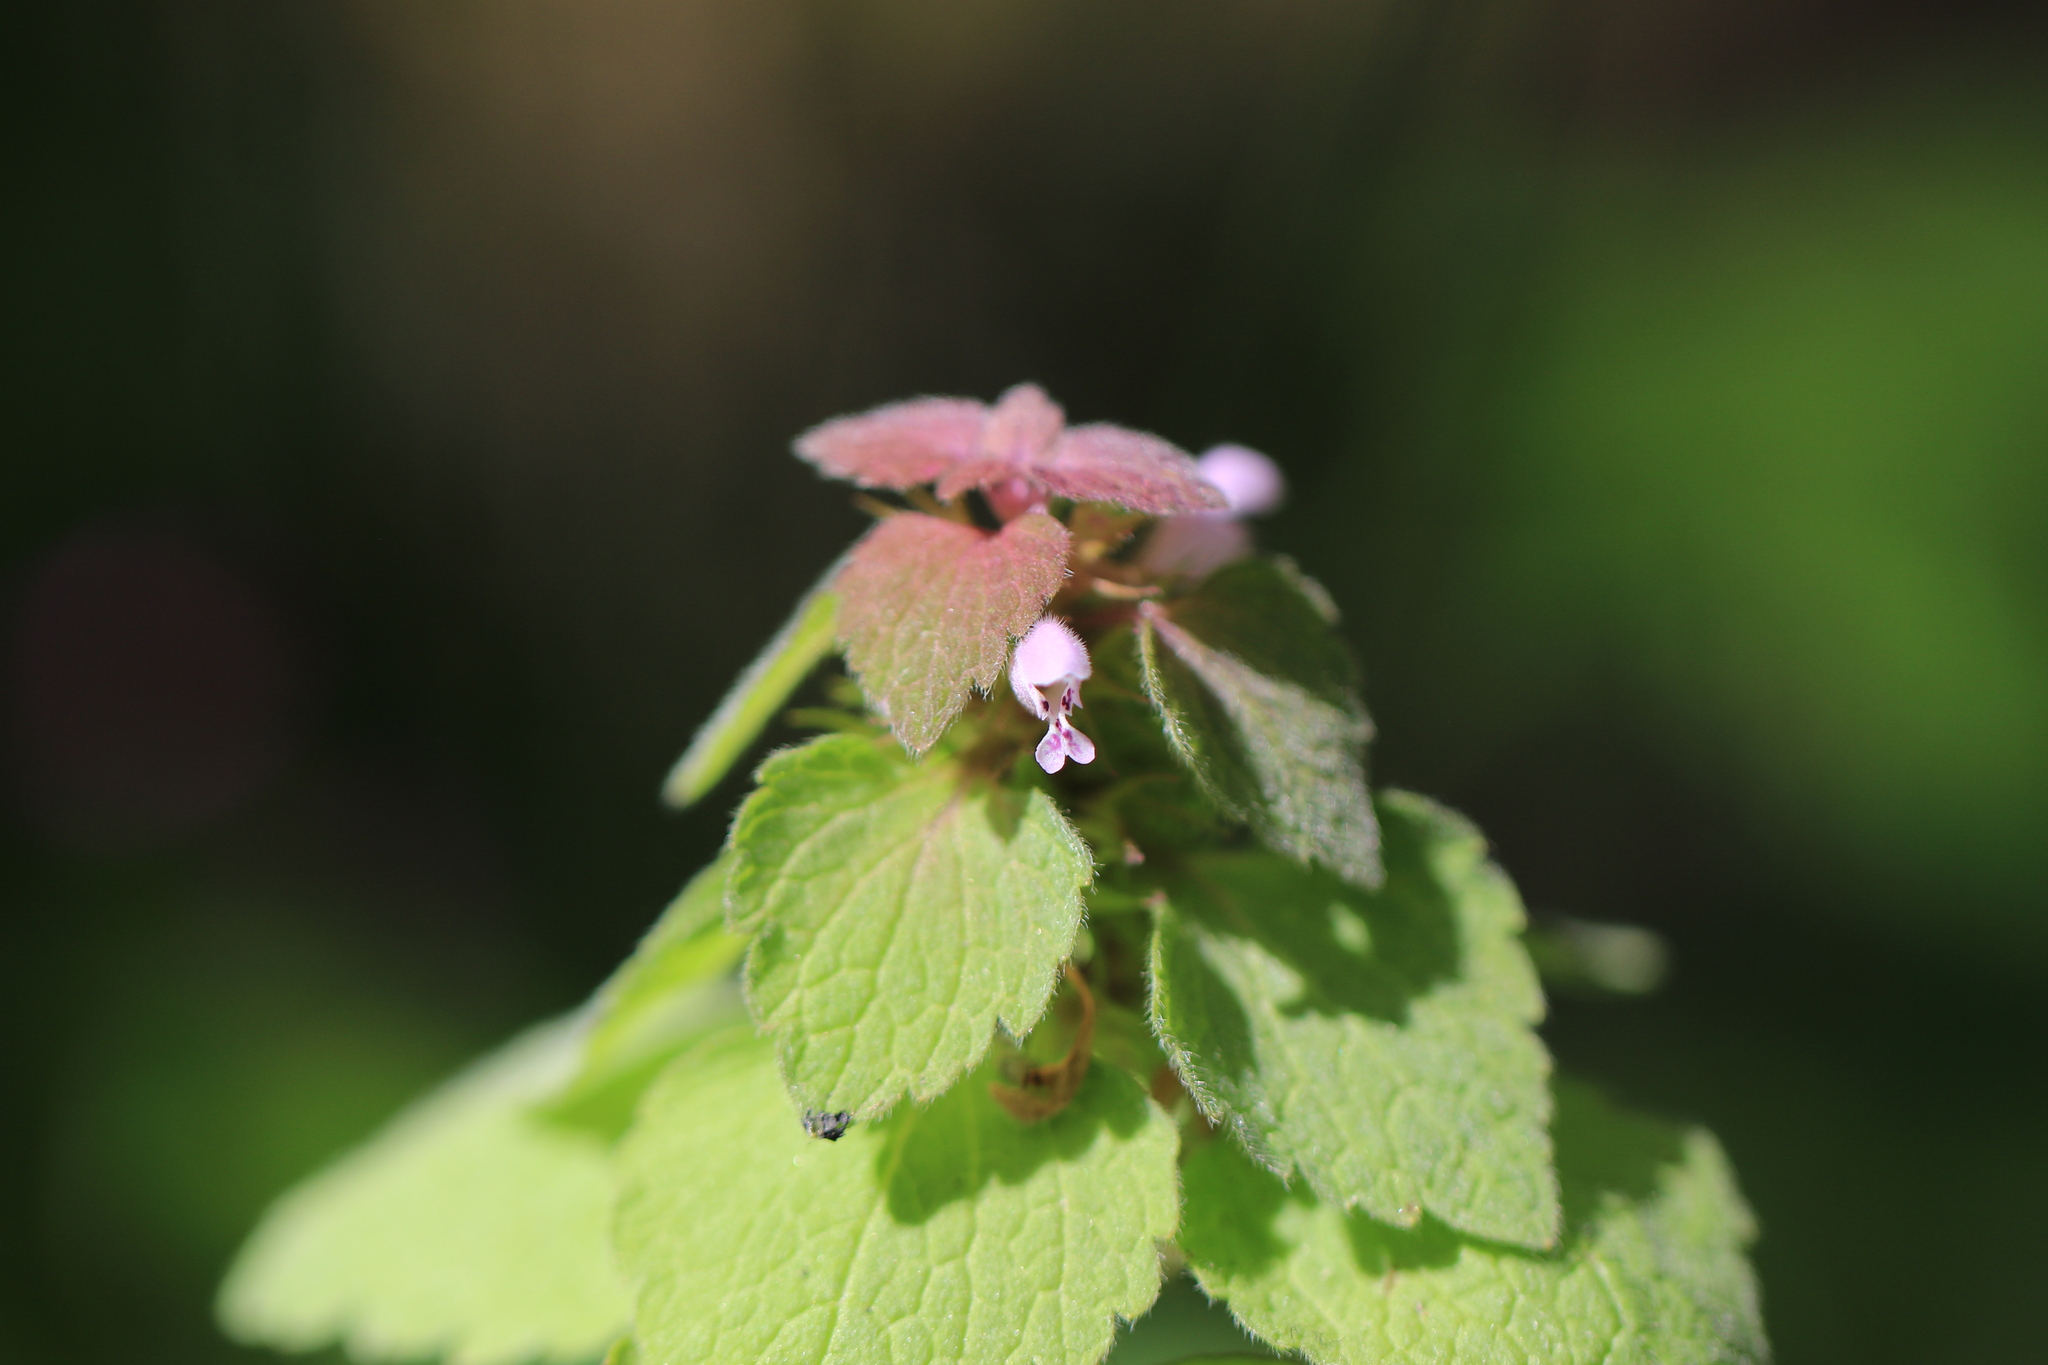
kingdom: Plantae
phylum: Tracheophyta
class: Magnoliopsida
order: Lamiales
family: Lamiaceae
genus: Lamium
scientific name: Lamium purpureum
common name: Red dead-nettle
